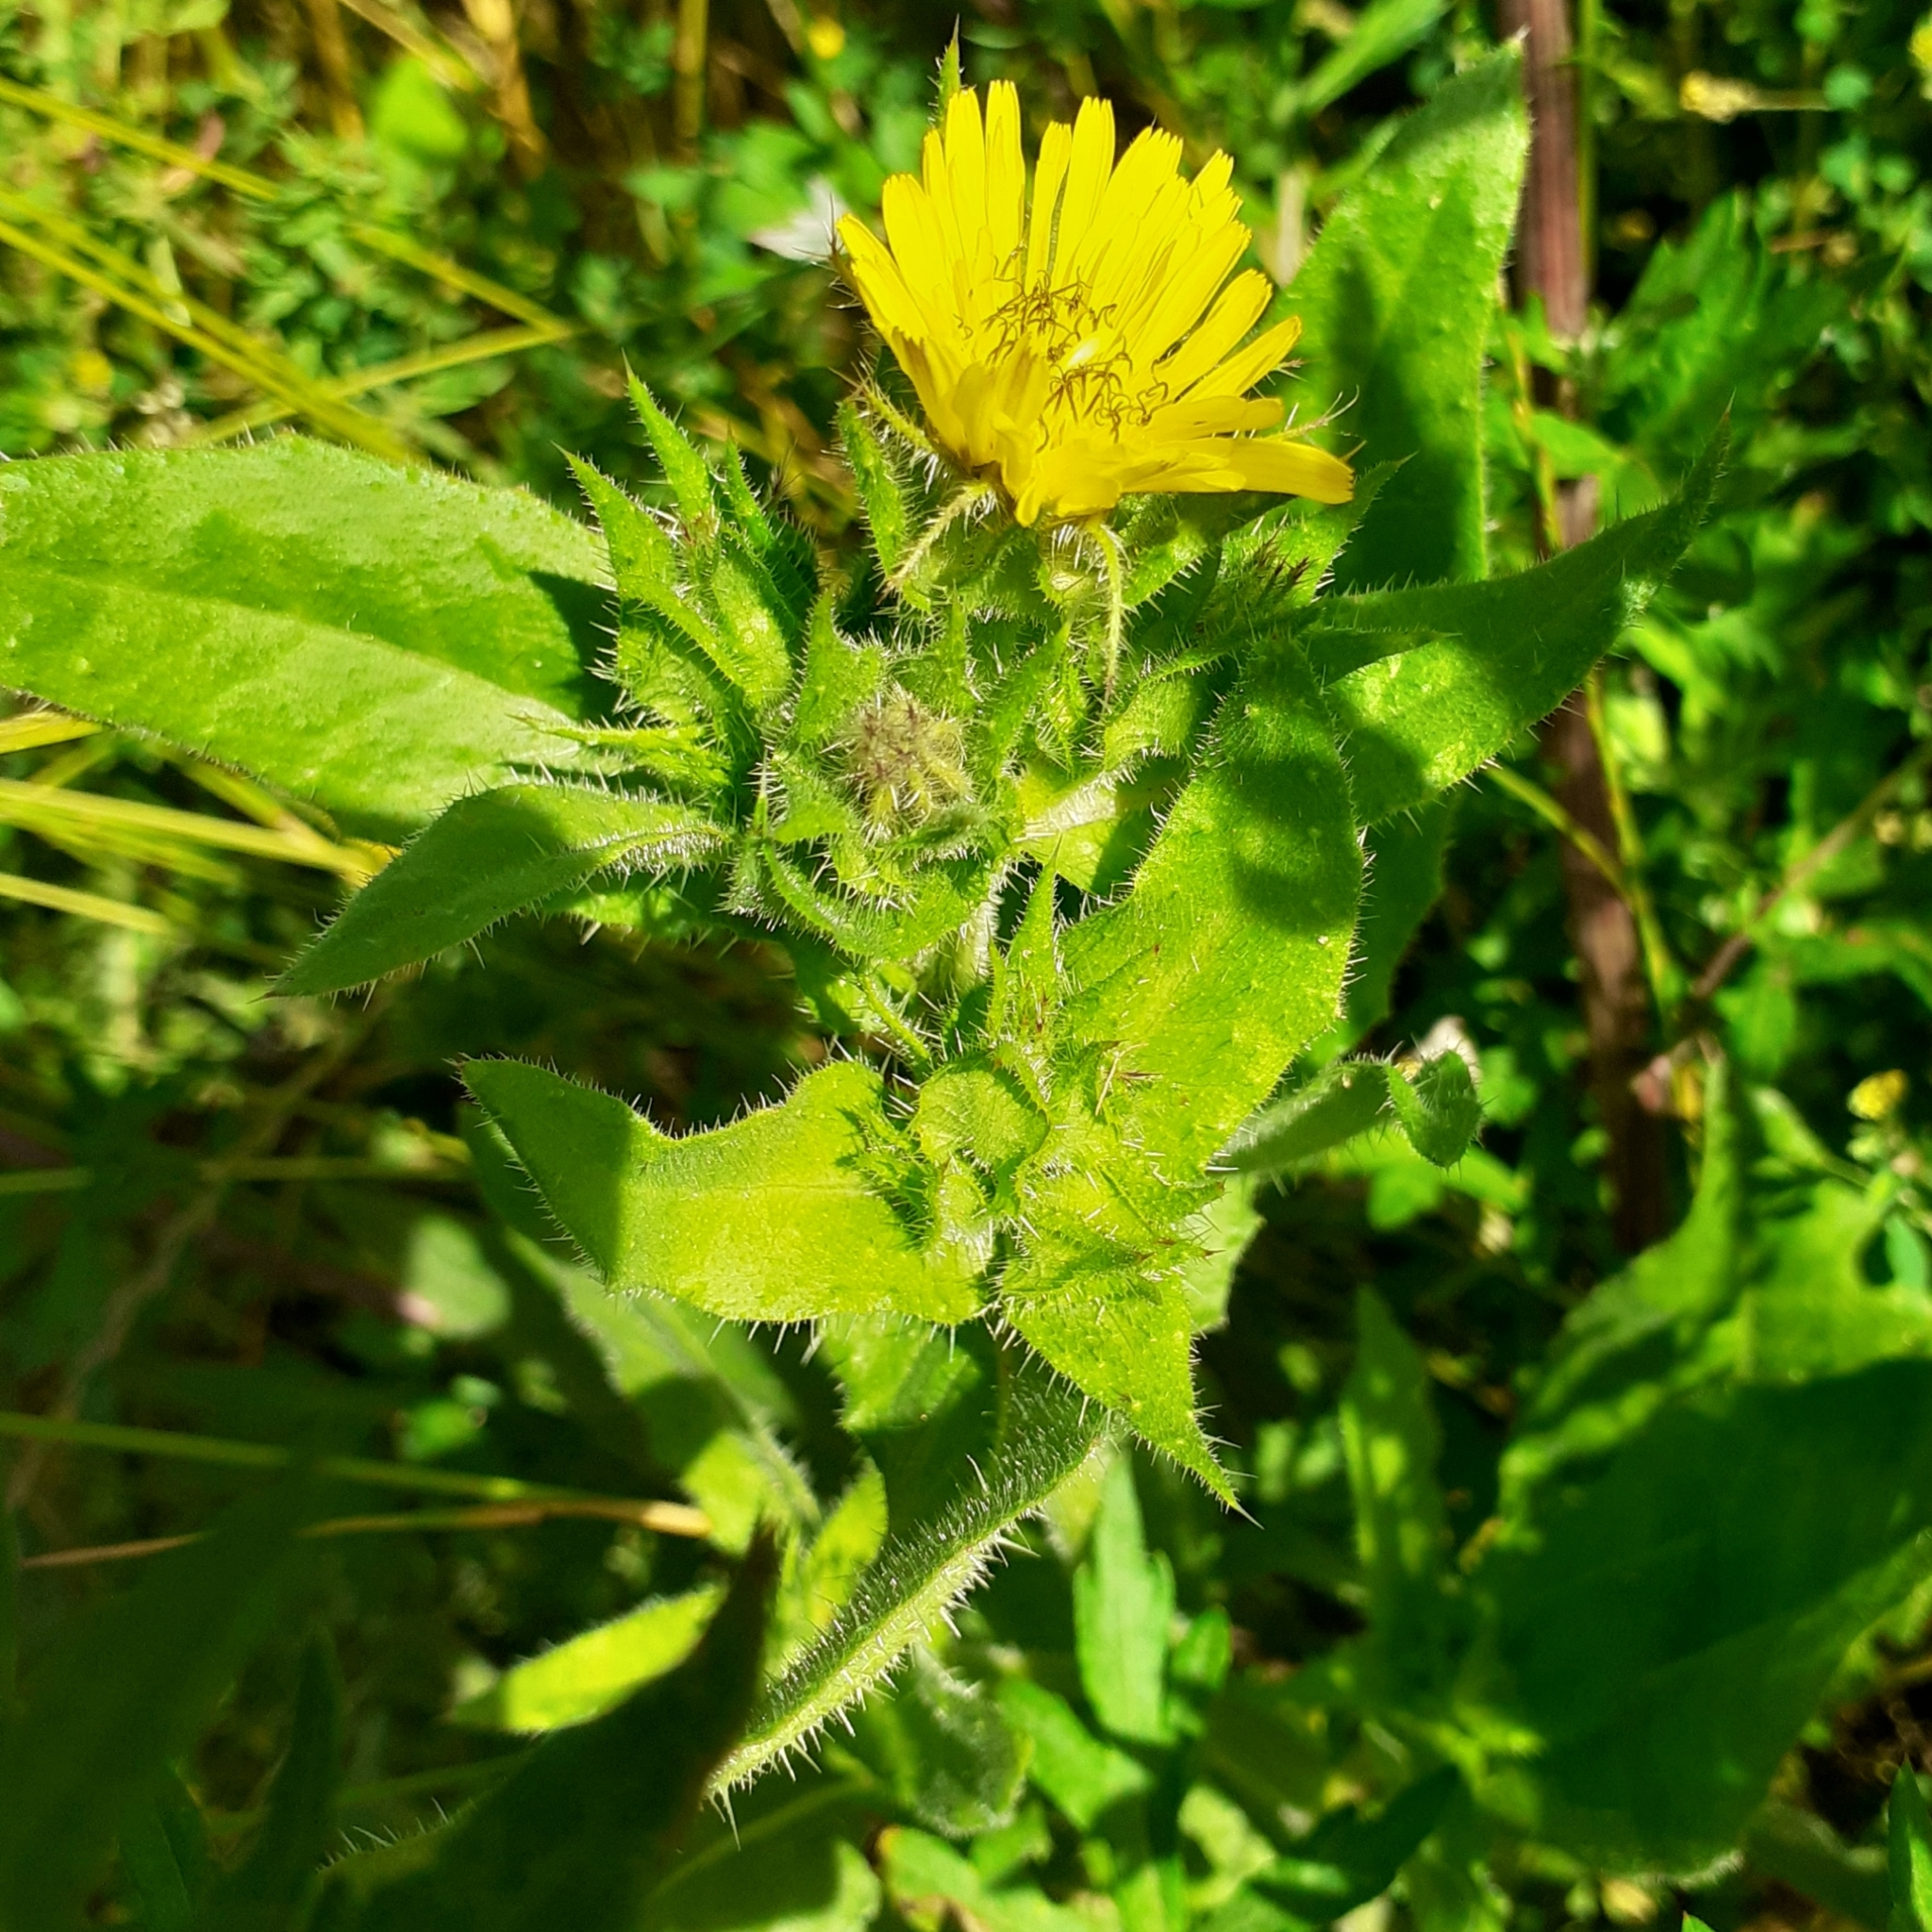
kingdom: Plantae
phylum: Tracheophyta
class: Magnoliopsida
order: Asterales
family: Asteraceae
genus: Helminthotheca
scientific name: Helminthotheca echioides
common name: Ox-tongue
